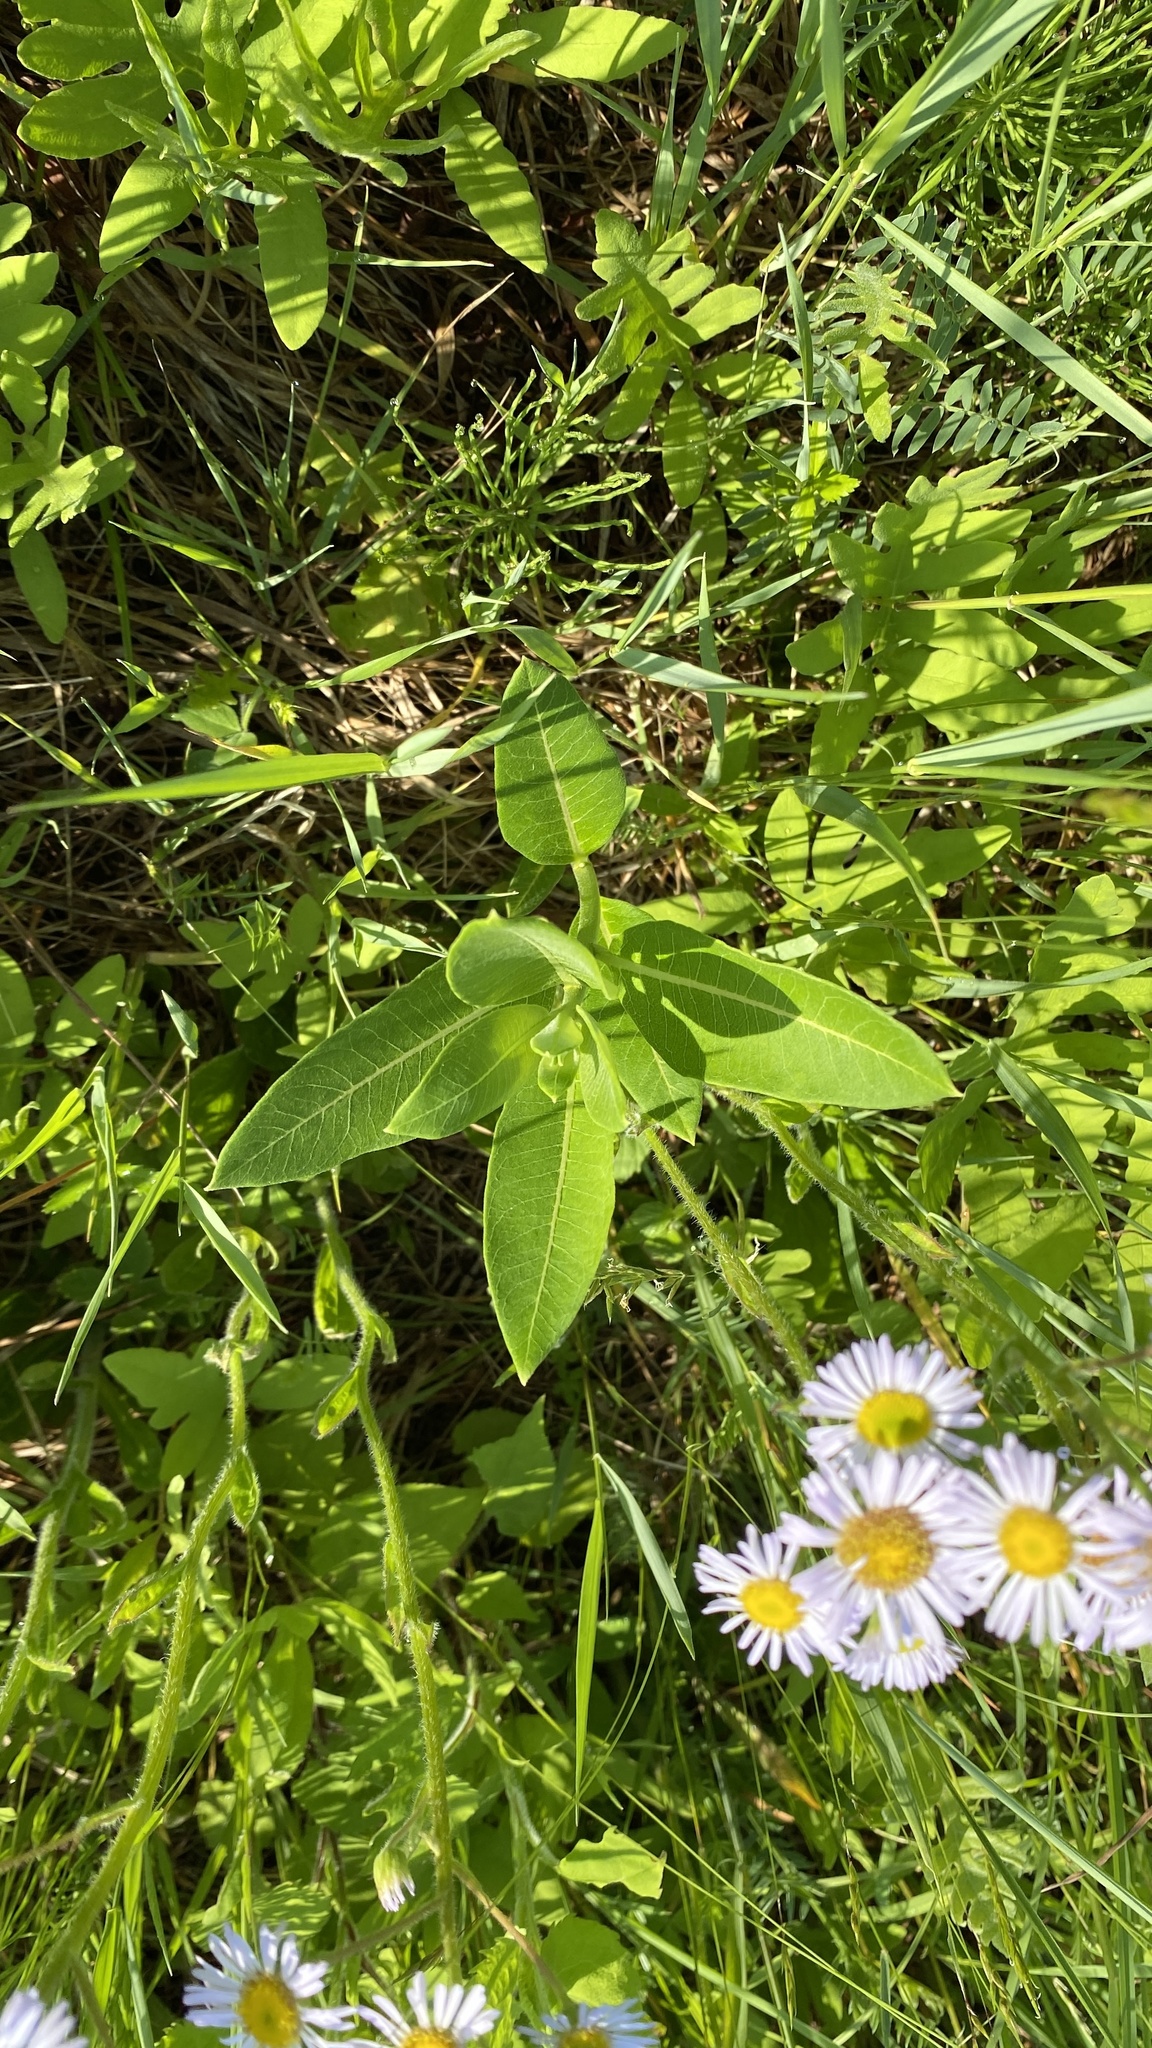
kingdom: Plantae
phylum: Tracheophyta
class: Magnoliopsida
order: Gentianales
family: Apocynaceae
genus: Asclepias
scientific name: Asclepias syriaca
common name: Common milkweed
